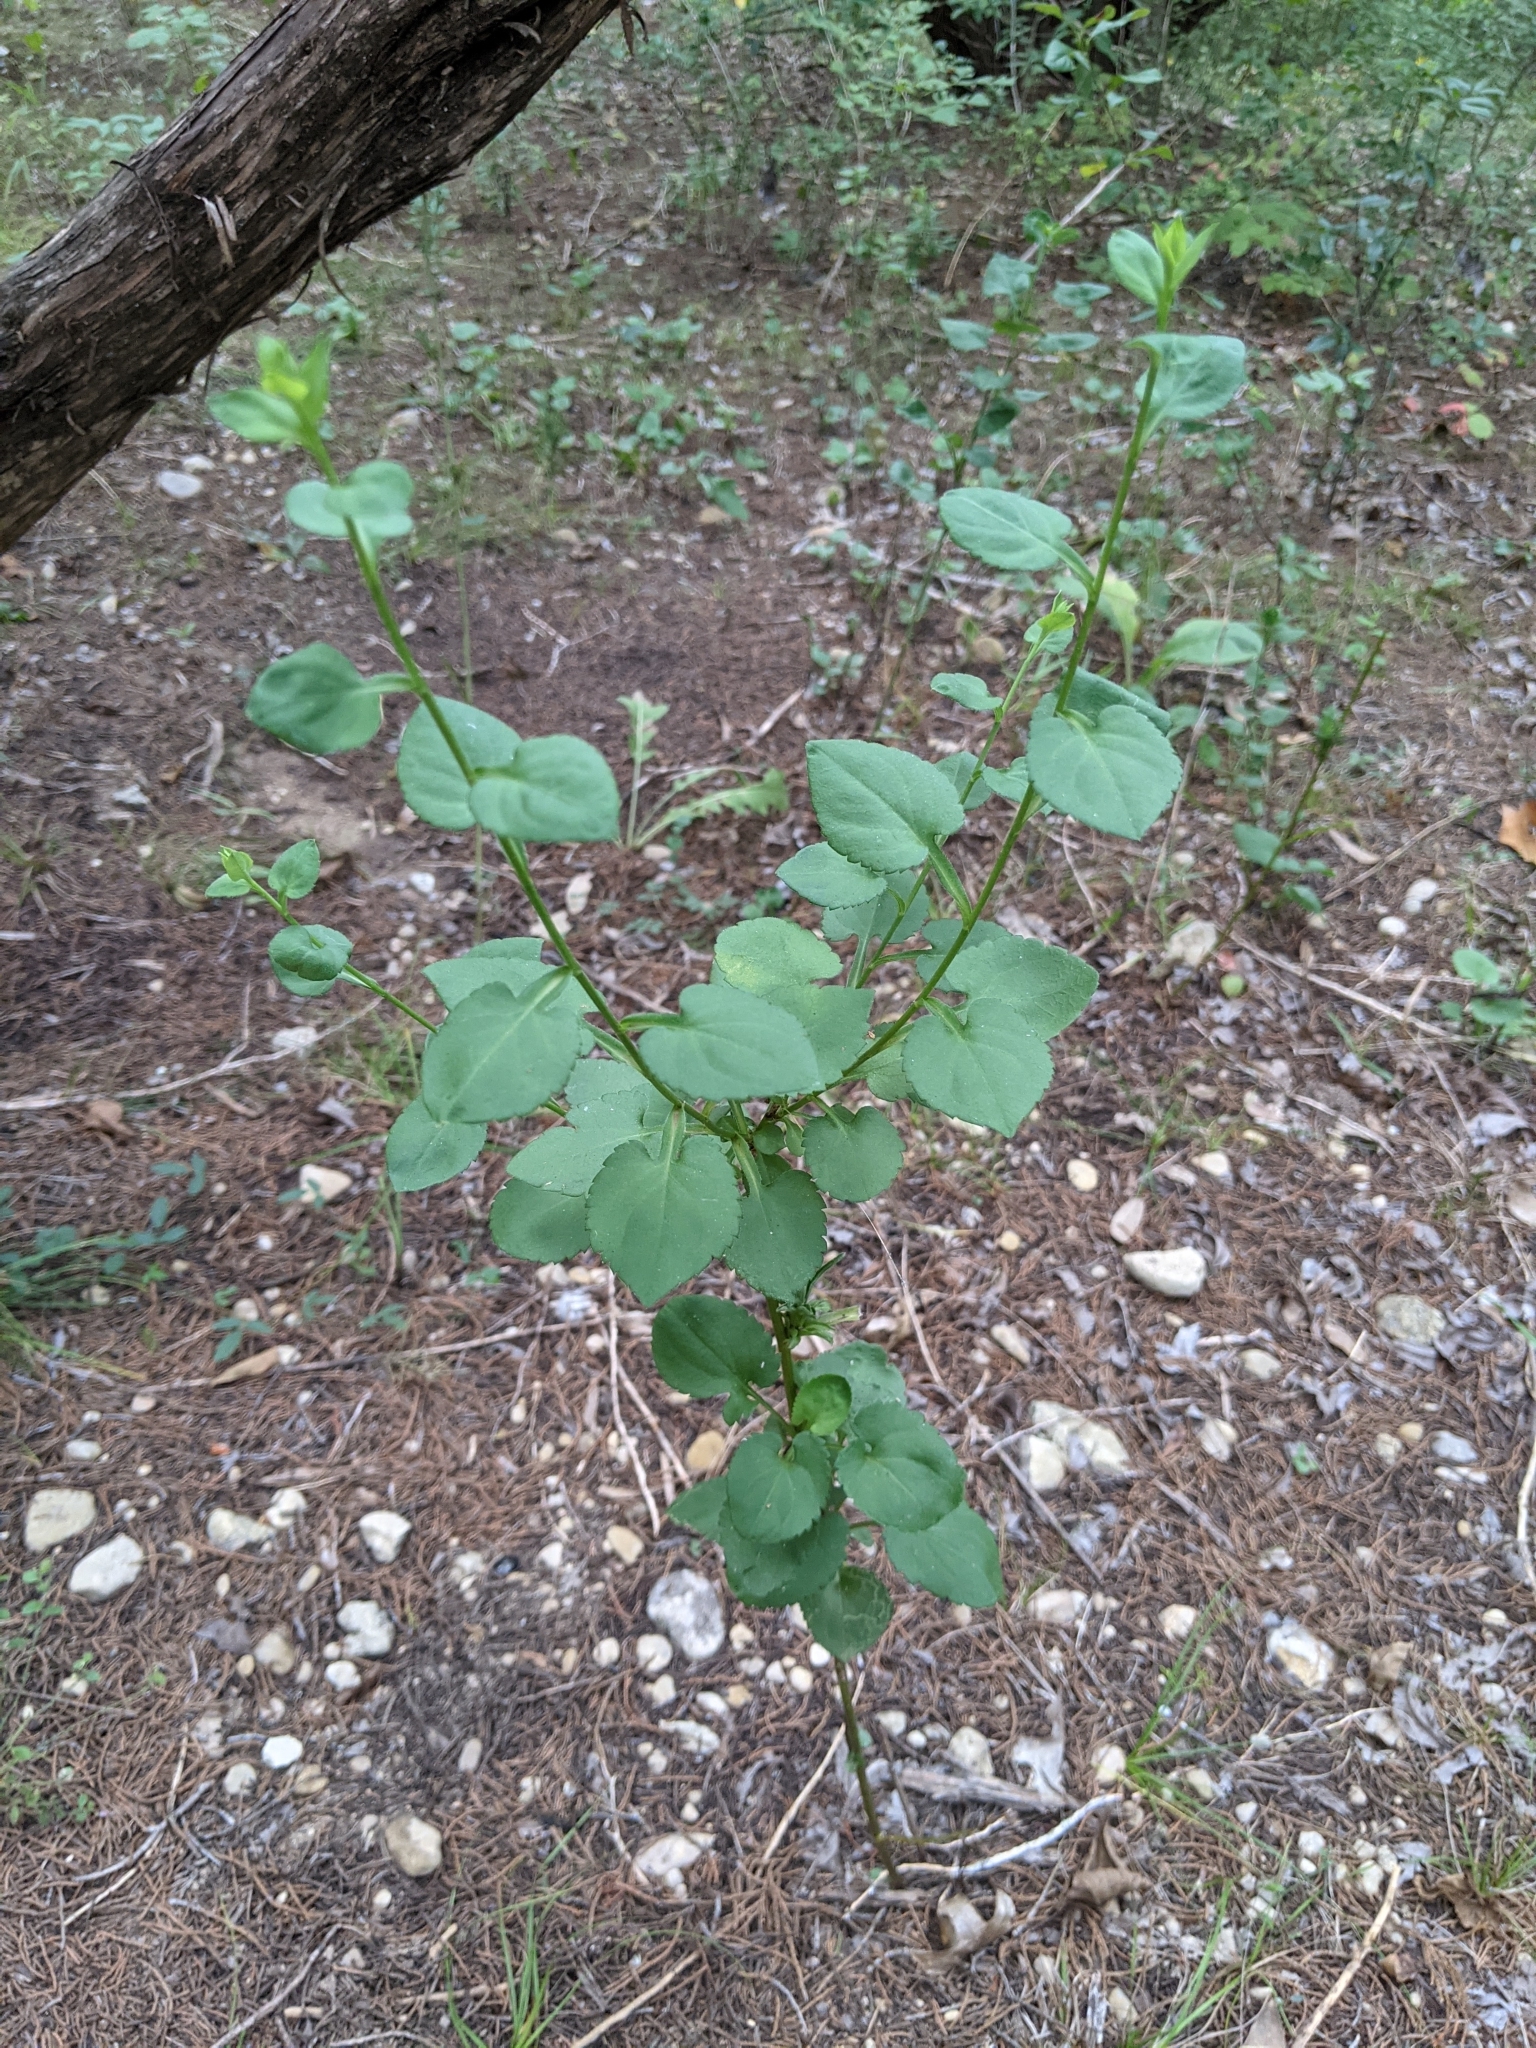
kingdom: Plantae
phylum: Tracheophyta
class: Magnoliopsida
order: Asterales
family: Asteraceae
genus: Symphyotrichum
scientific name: Symphyotrichum drummondii
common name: Drummond's aster
